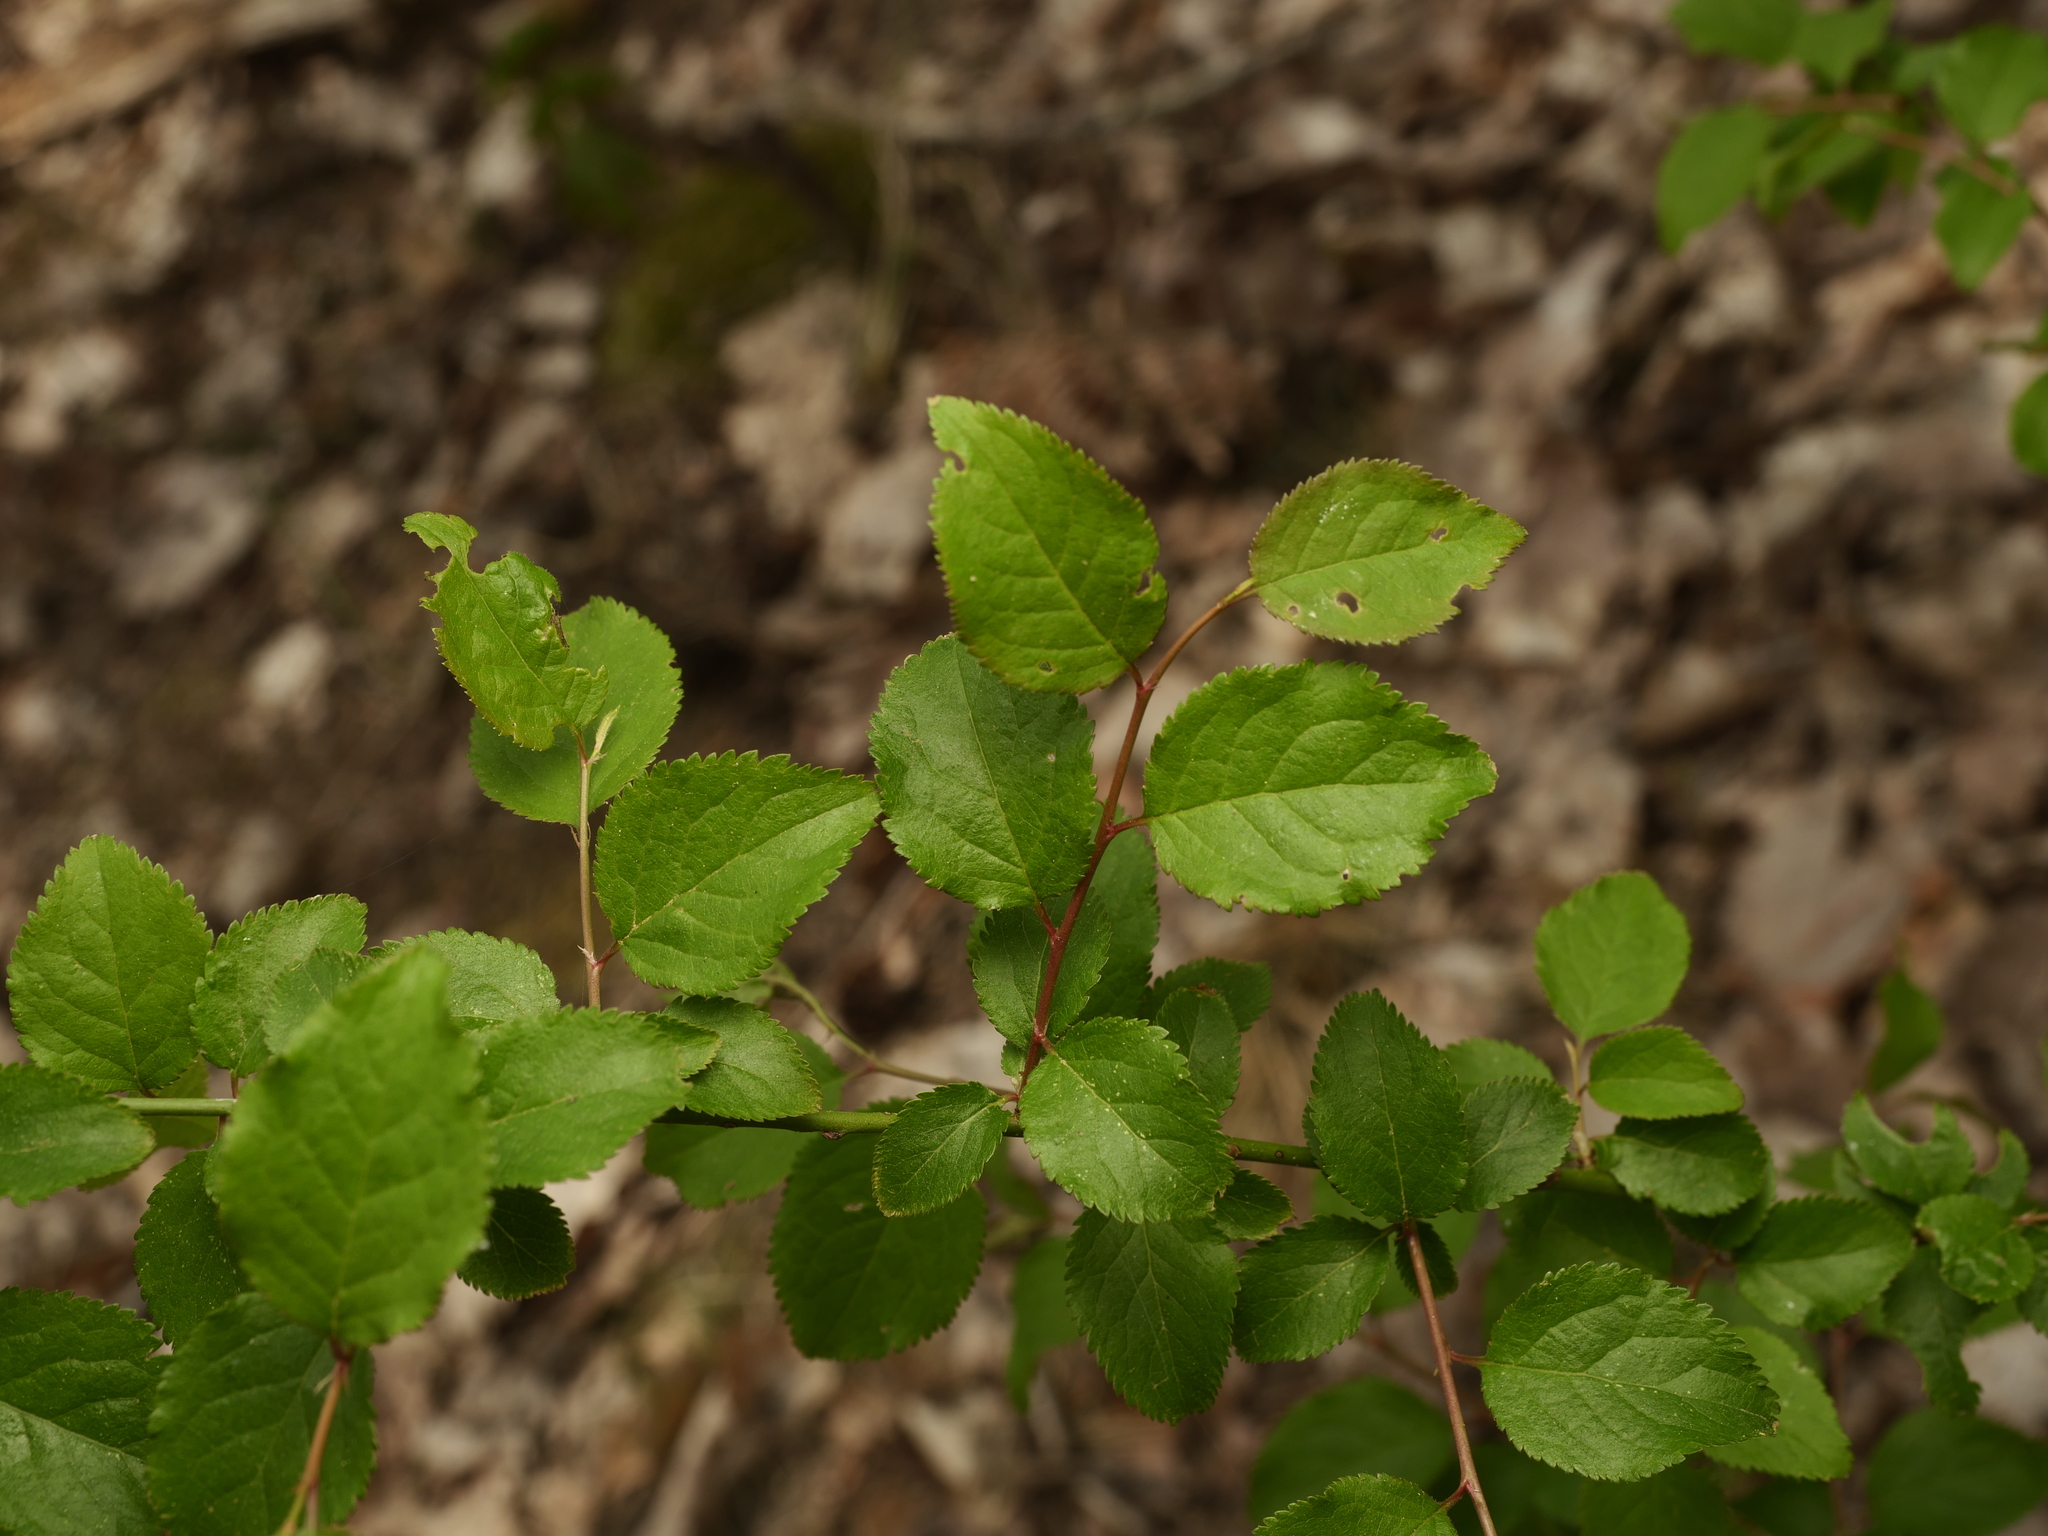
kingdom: Plantae
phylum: Tracheophyta
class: Magnoliopsida
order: Rosales
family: Rosaceae
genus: Prunus
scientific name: Prunus cerasifera
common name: Cherry plum
